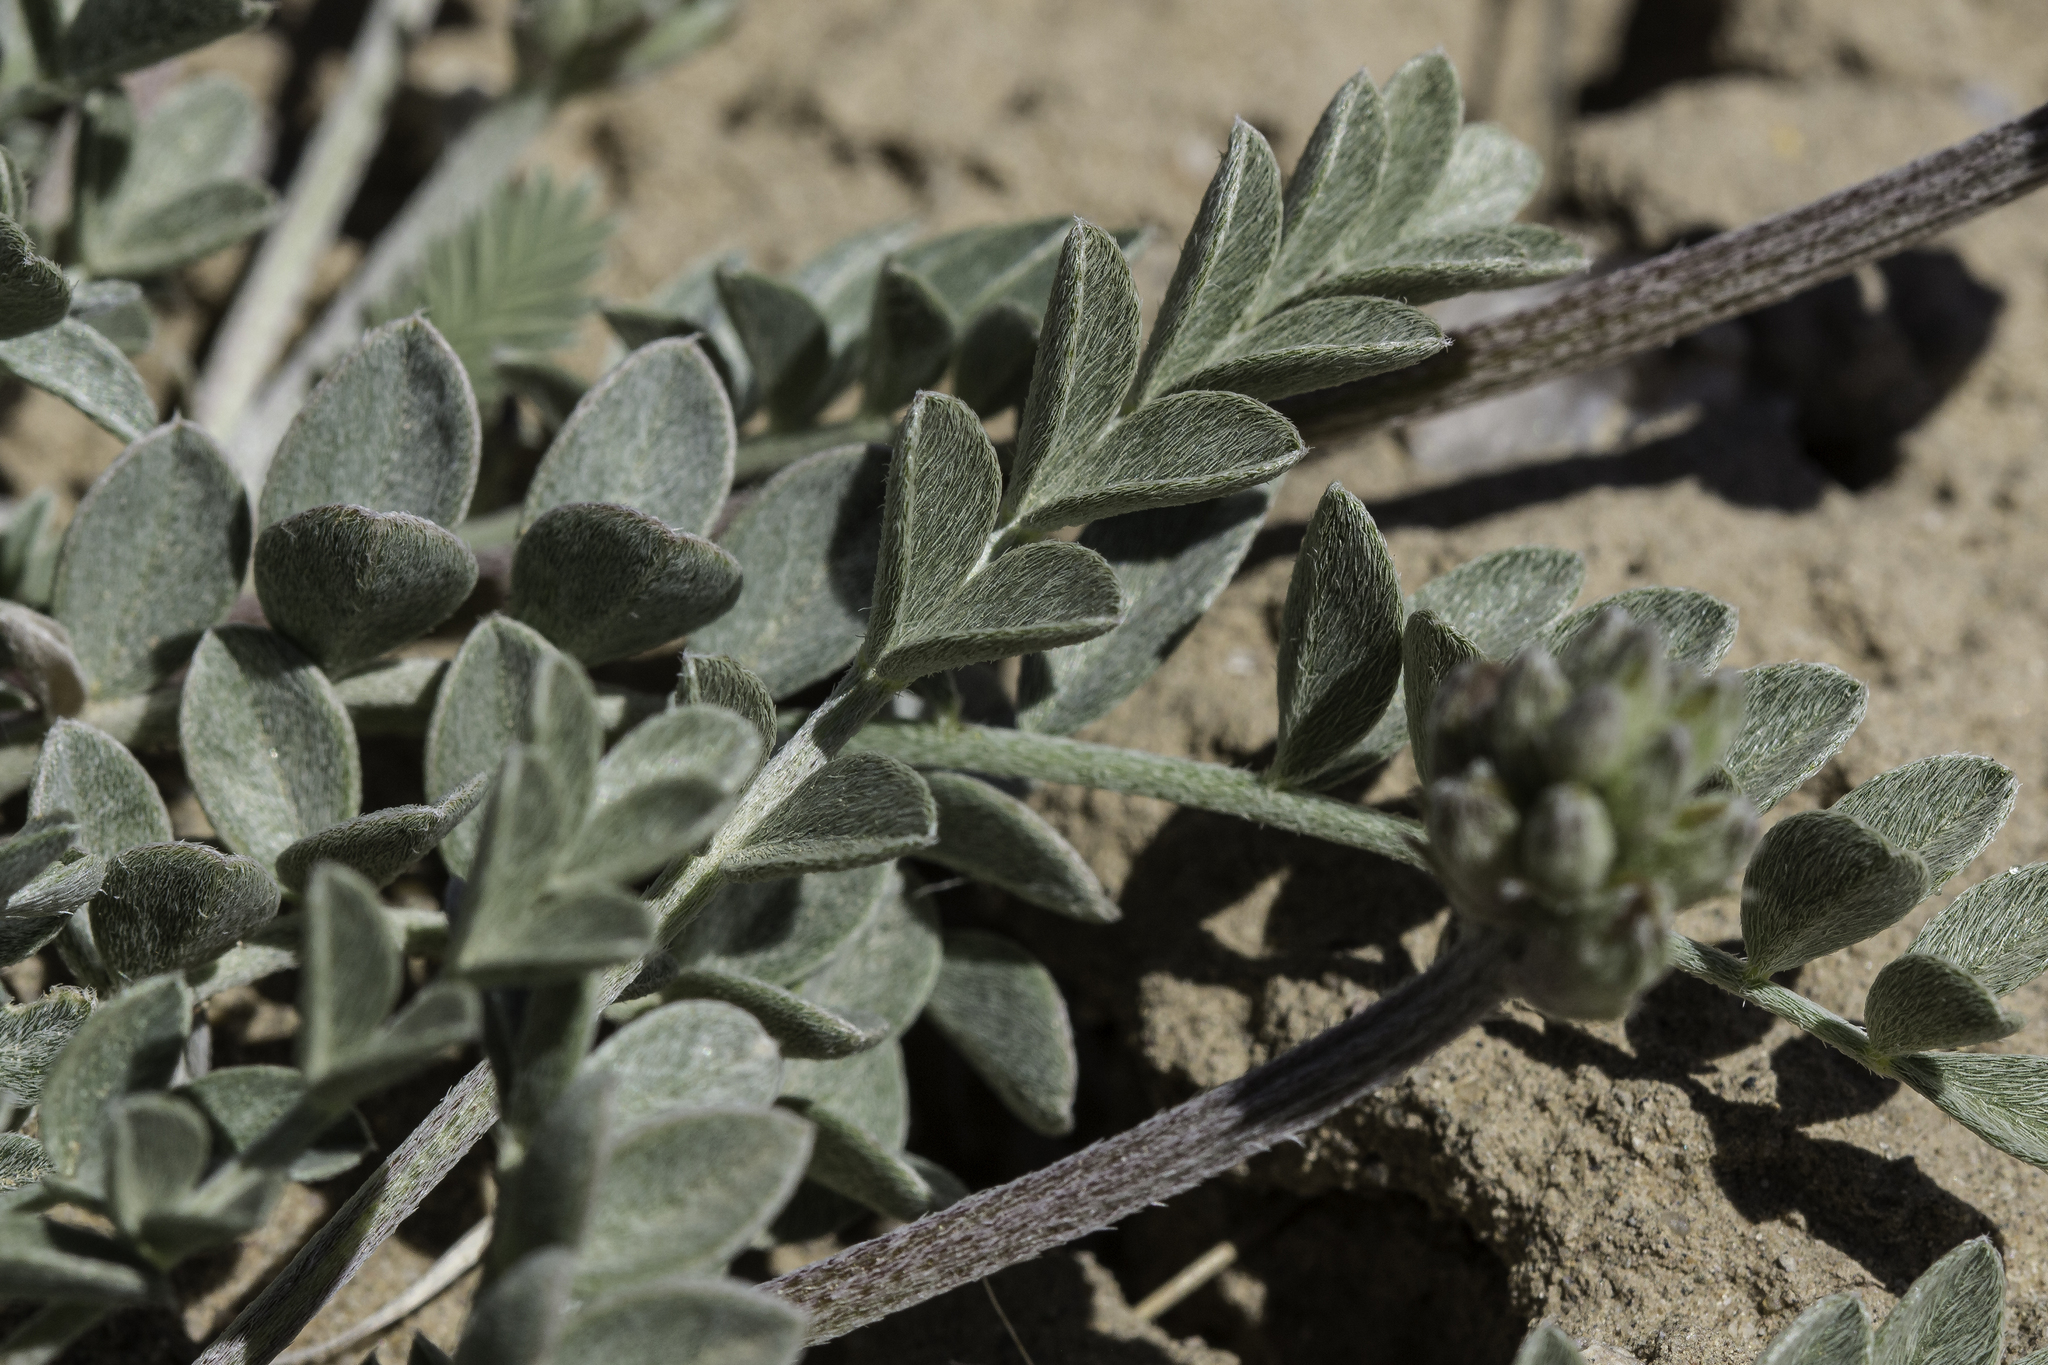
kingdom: Plantae
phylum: Tracheophyta
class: Magnoliopsida
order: Fabales
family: Fabaceae
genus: Astragalus
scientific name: Astragalus missouriensis
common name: Missouri milk-vetch
